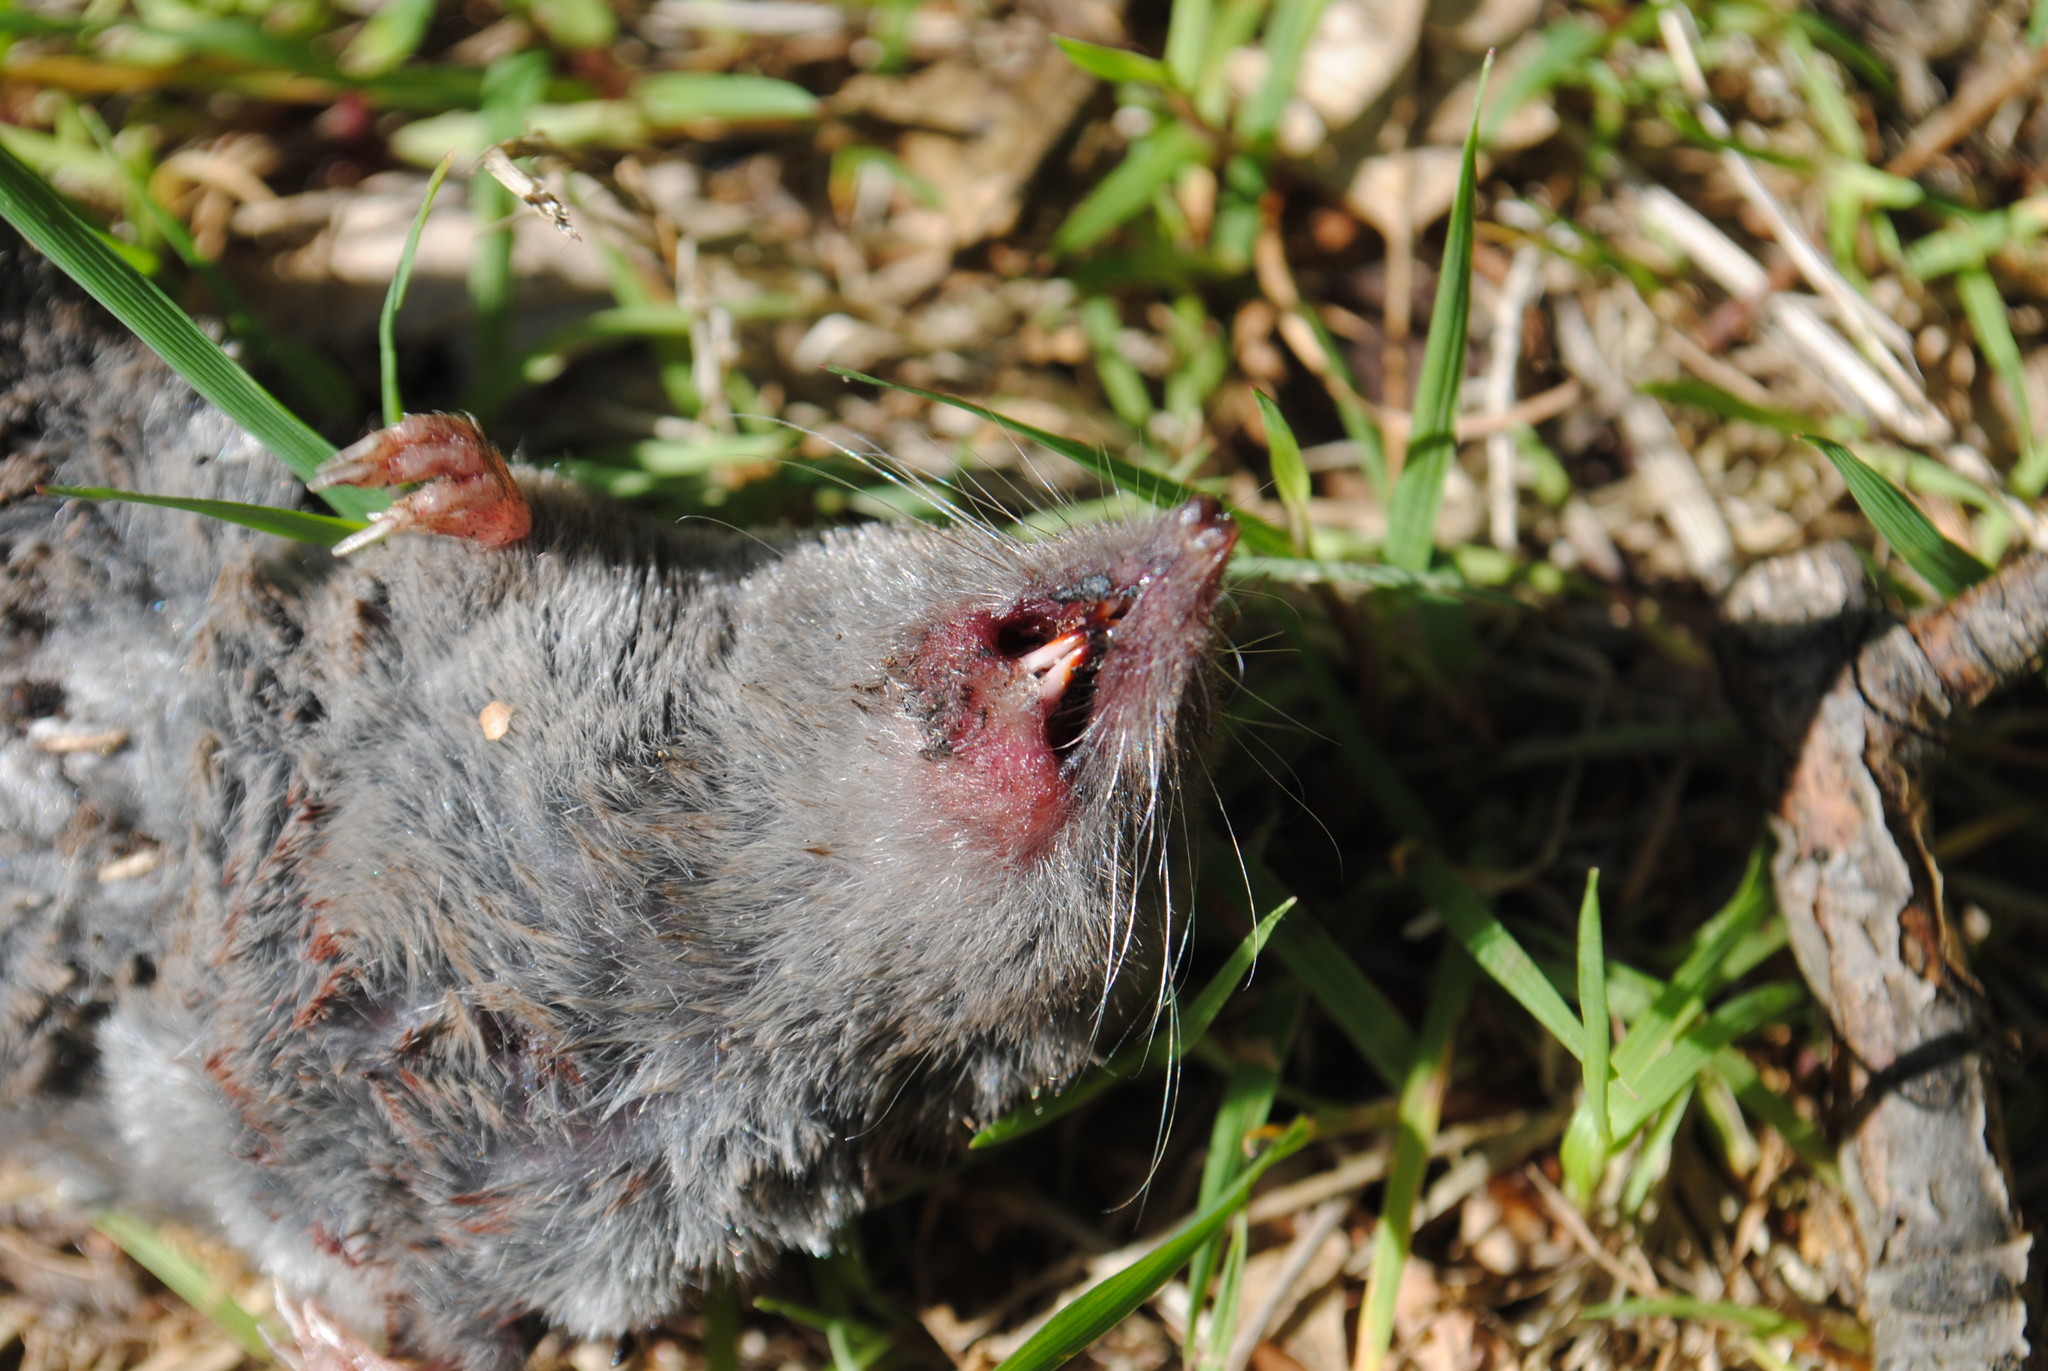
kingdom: Animalia
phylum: Chordata
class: Mammalia
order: Soricomorpha
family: Soricidae
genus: Blarina
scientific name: Blarina brevicauda
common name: Northern short-tailed shrew
